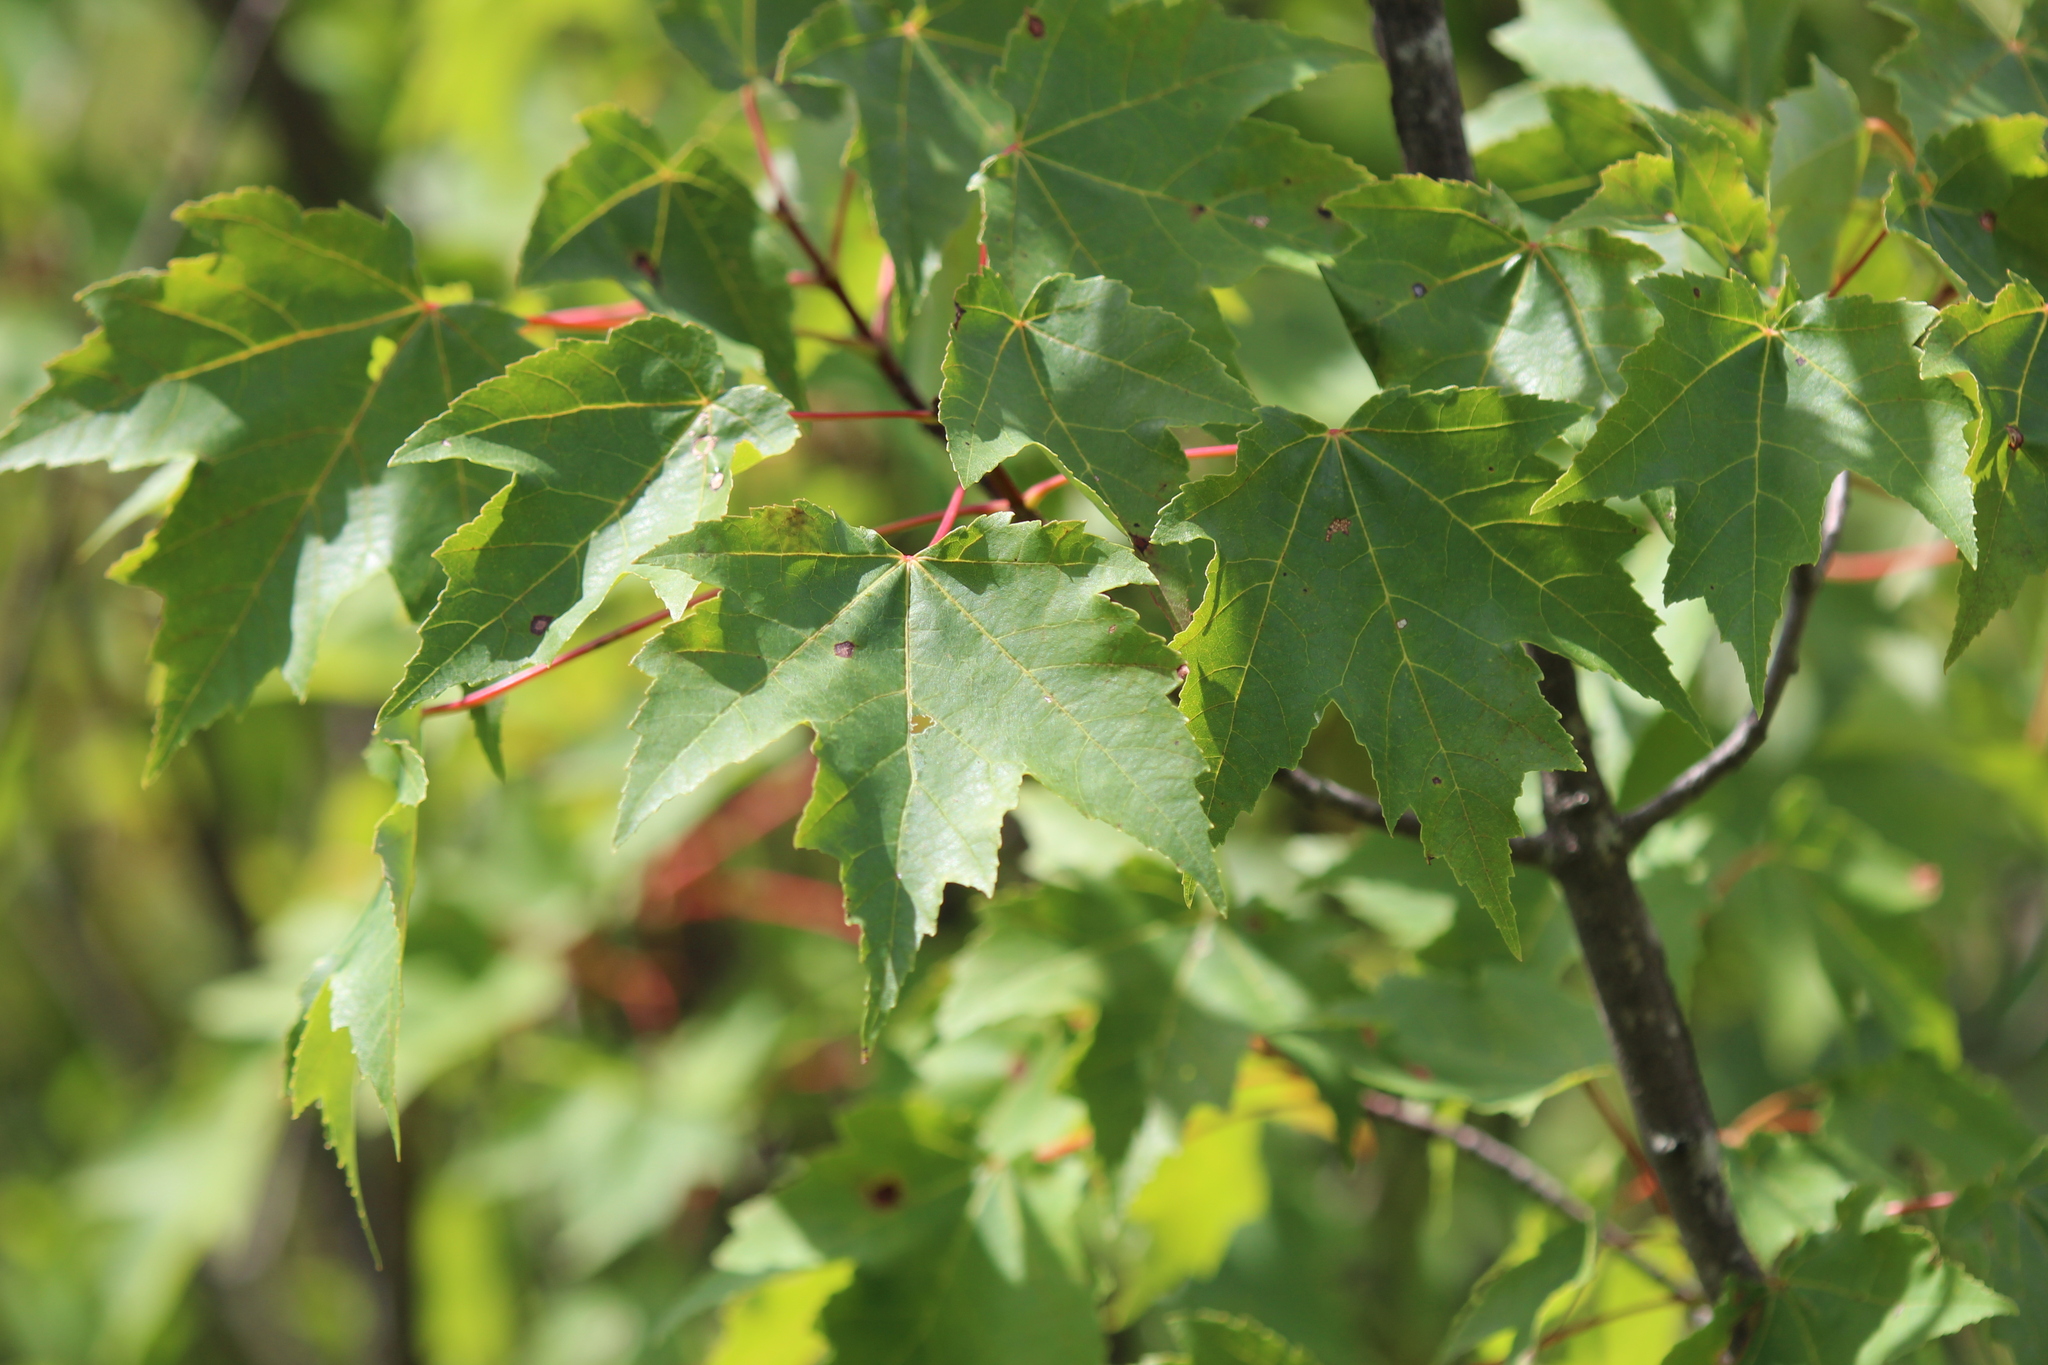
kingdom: Plantae
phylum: Tracheophyta
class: Magnoliopsida
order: Sapindales
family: Sapindaceae
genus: Acer
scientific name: Acer rubrum
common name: Red maple
